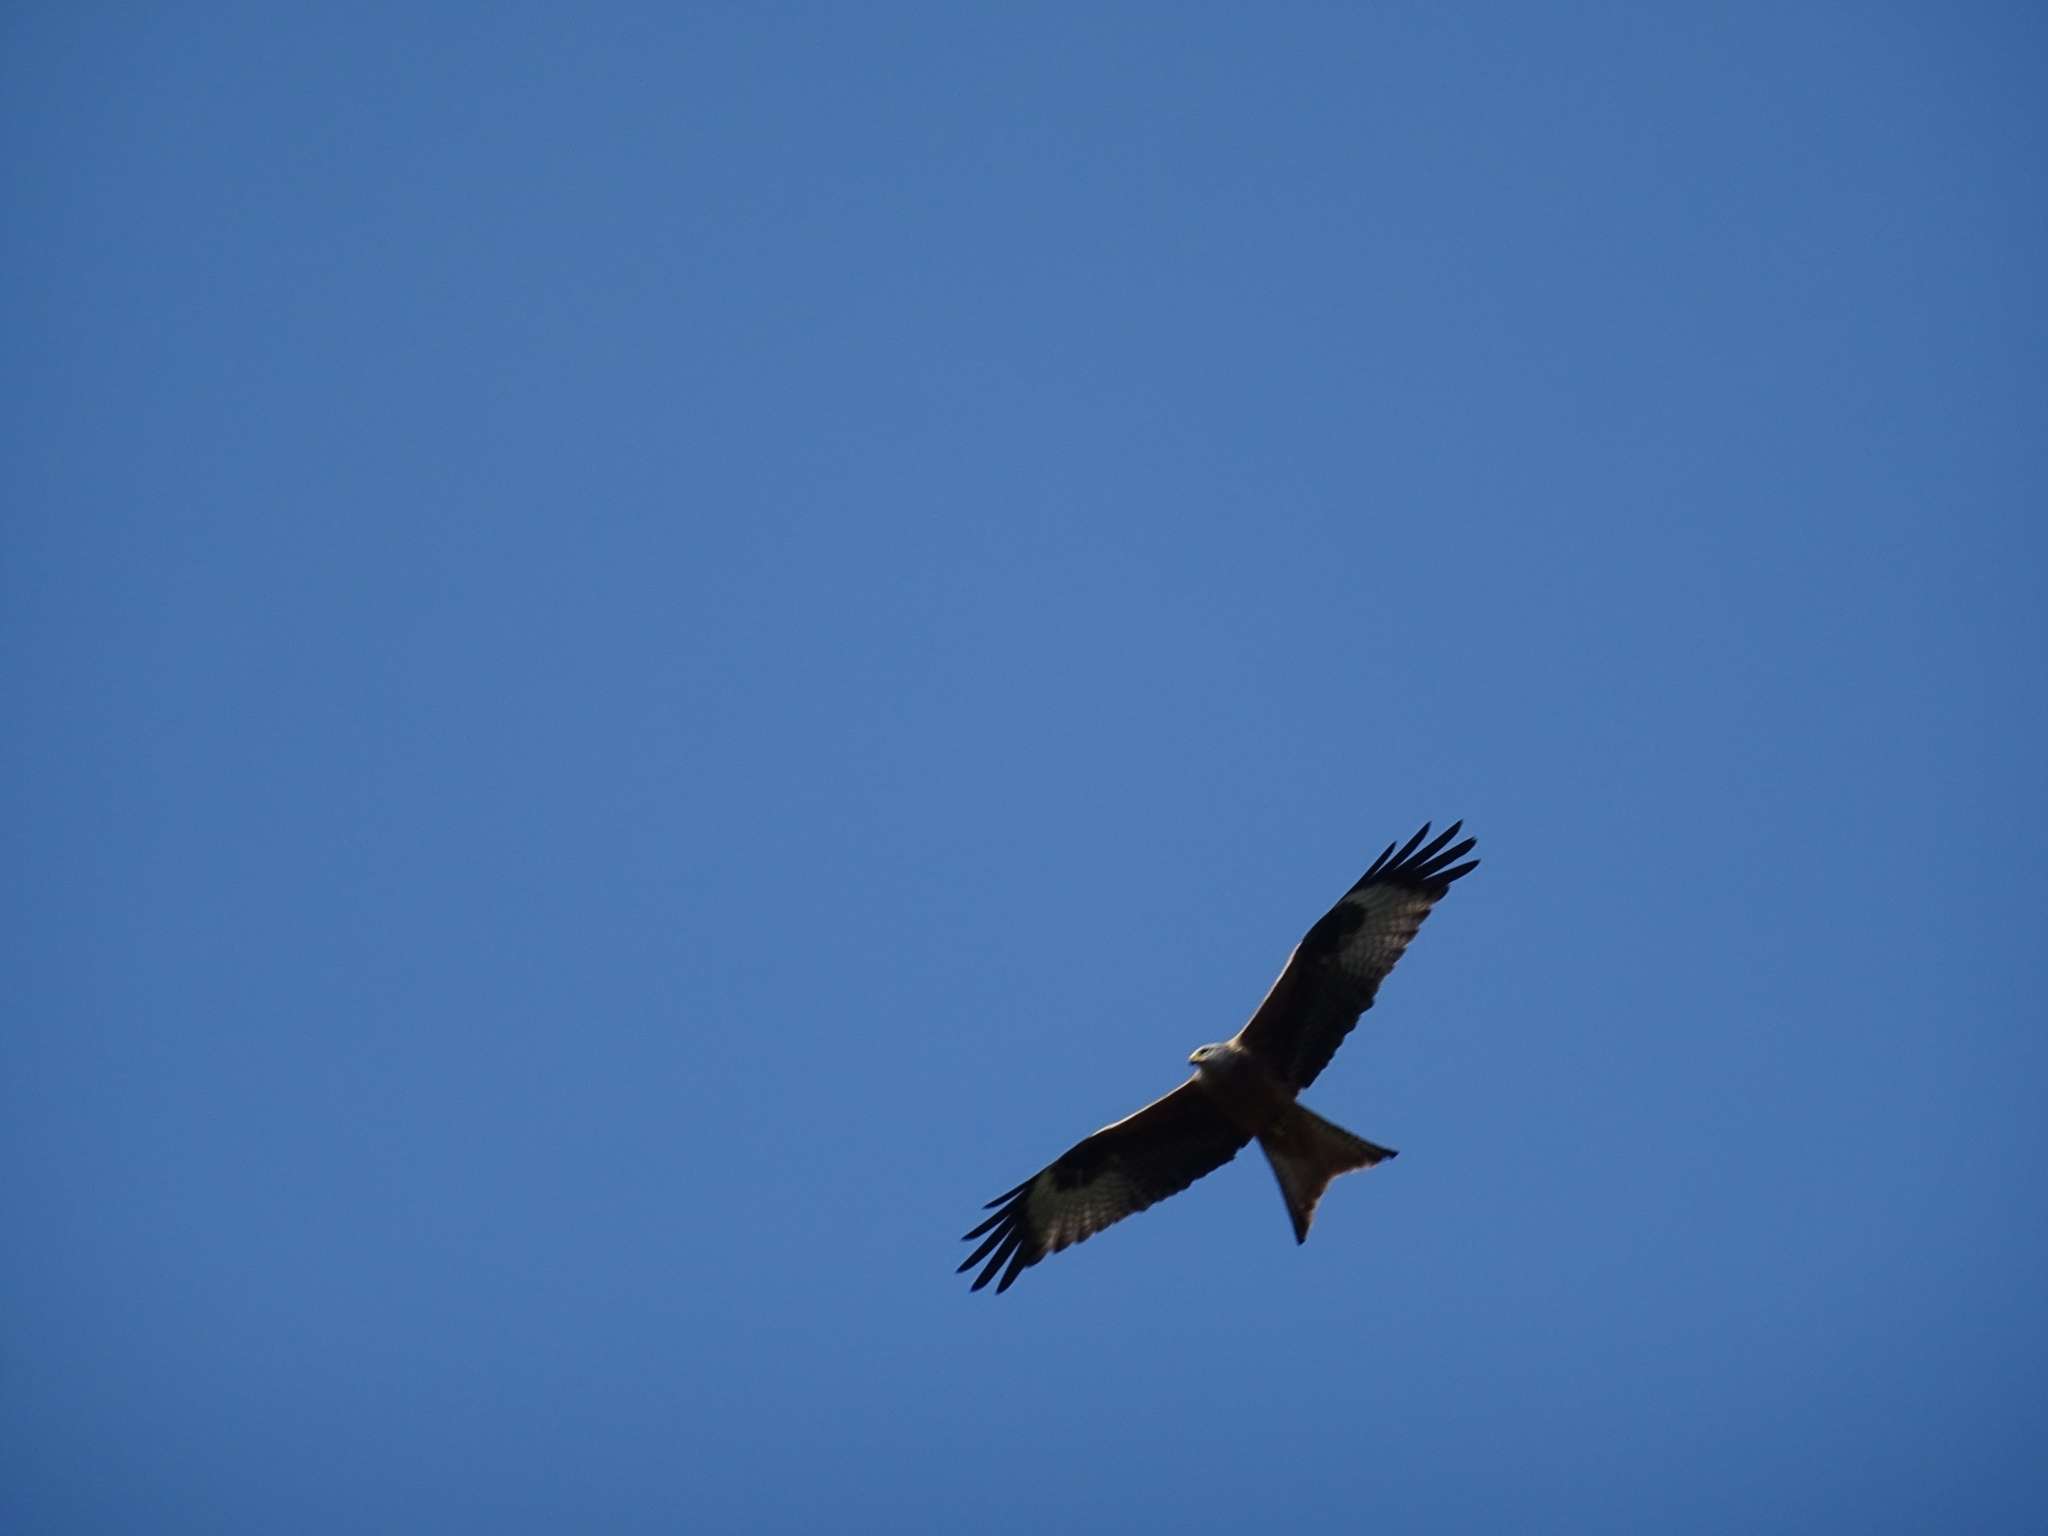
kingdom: Animalia
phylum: Chordata
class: Aves
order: Accipitriformes
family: Accipitridae
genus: Milvus
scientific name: Milvus milvus
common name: Red kite
